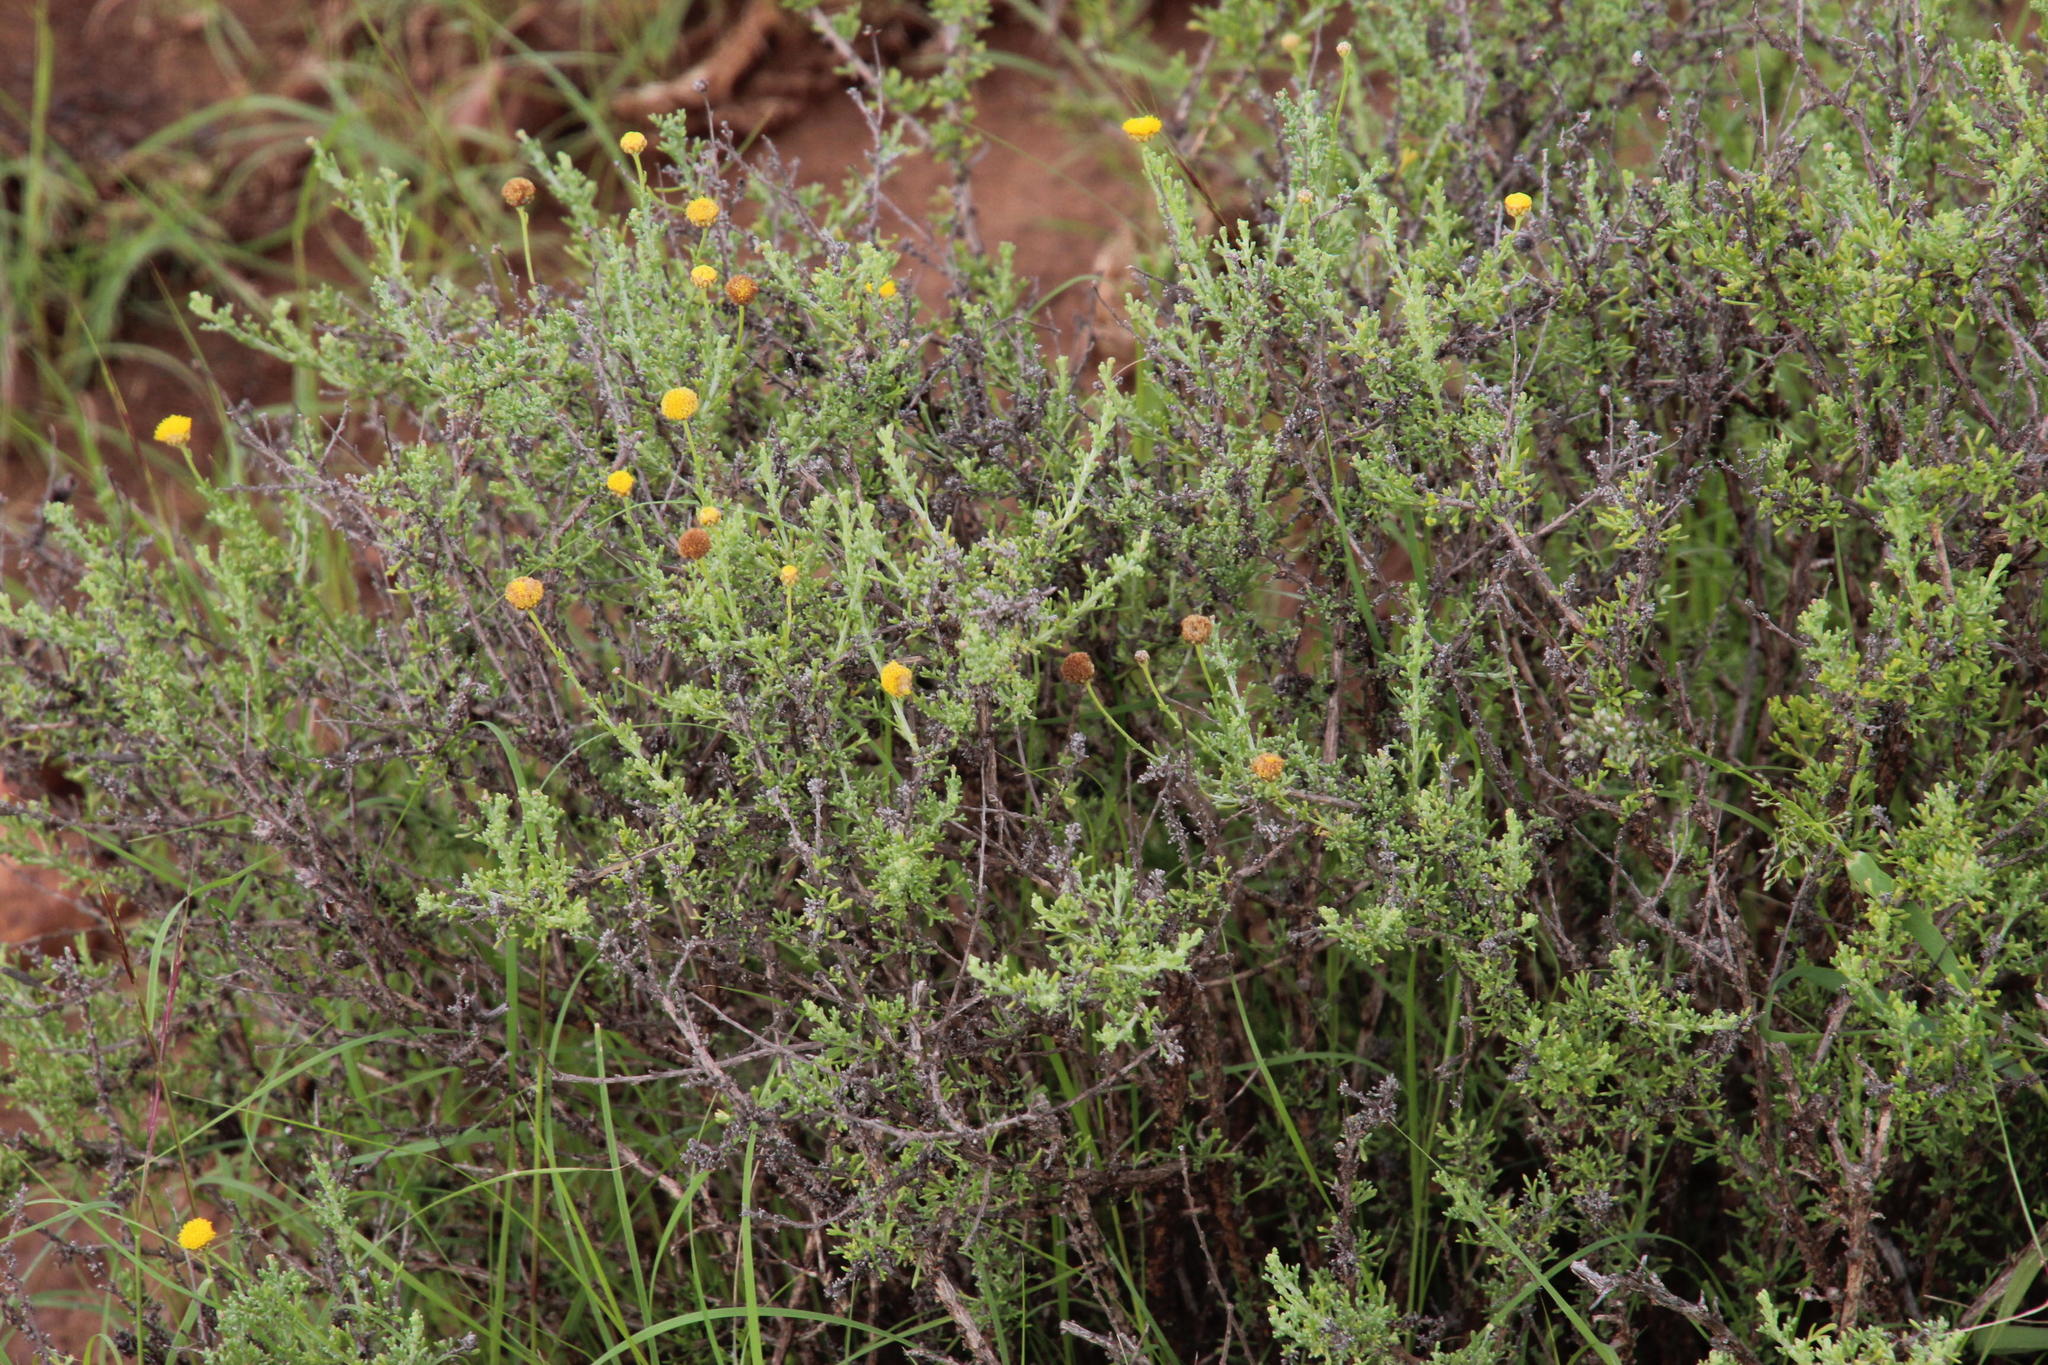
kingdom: Plantae
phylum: Tracheophyta
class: Magnoliopsida
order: Asterales
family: Asteraceae
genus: Pentzia
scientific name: Pentzia incana
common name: African sheepbush
